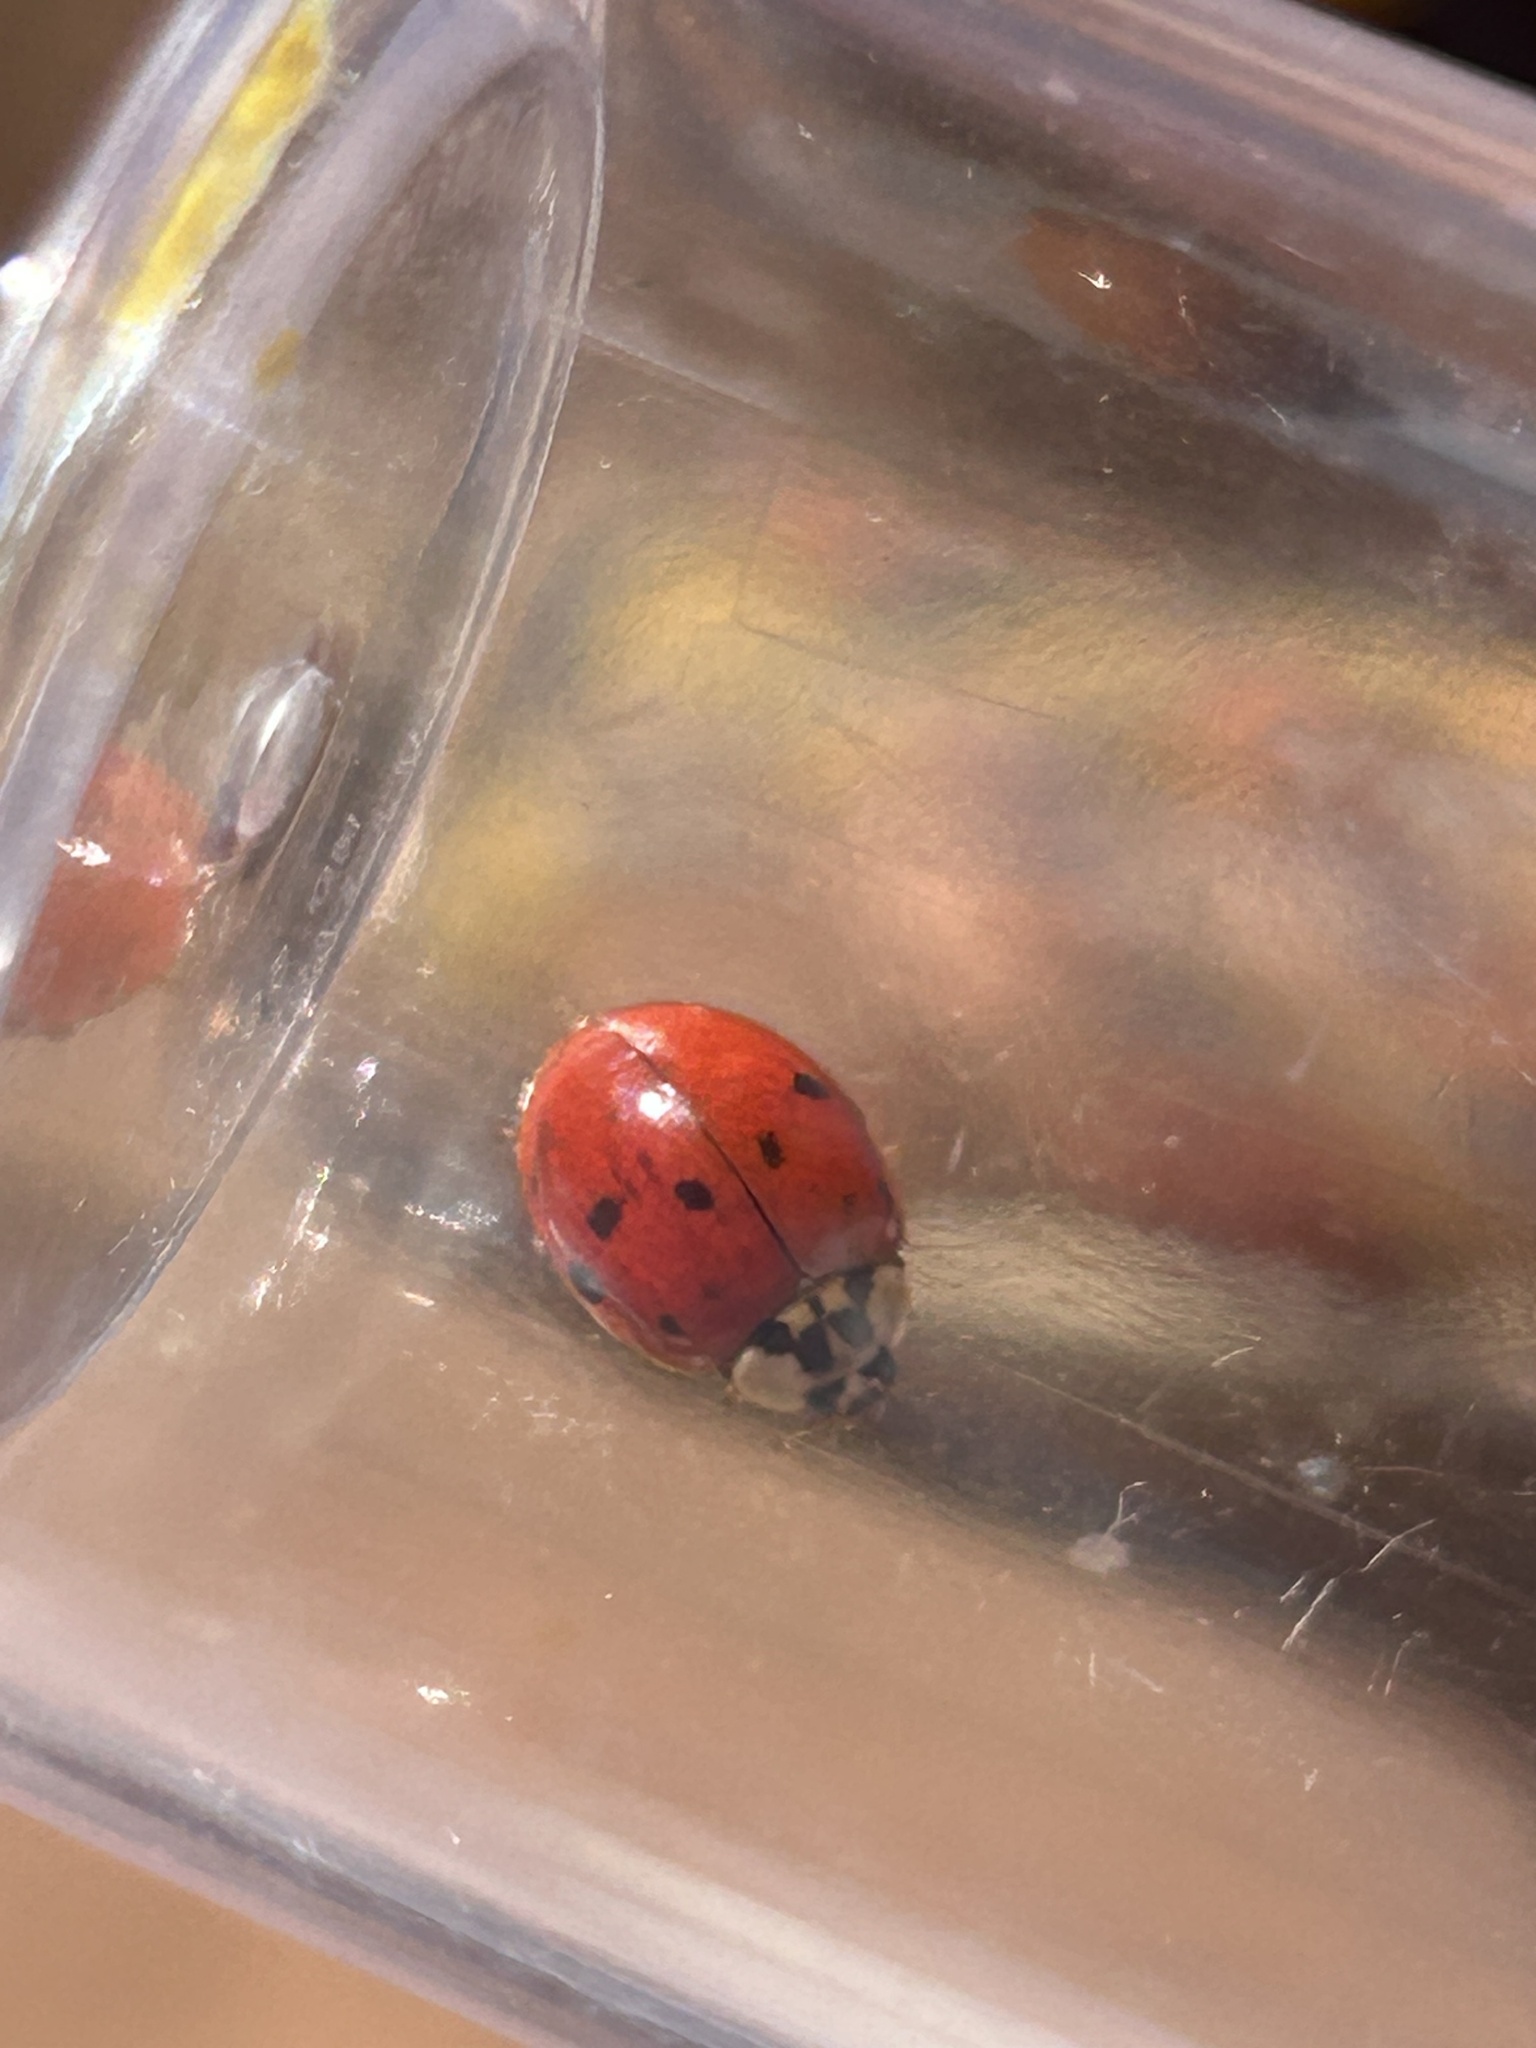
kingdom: Animalia
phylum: Arthropoda
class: Insecta
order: Coleoptera
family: Coccinellidae
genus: Harmonia
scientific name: Harmonia axyridis
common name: Harlequin ladybird
